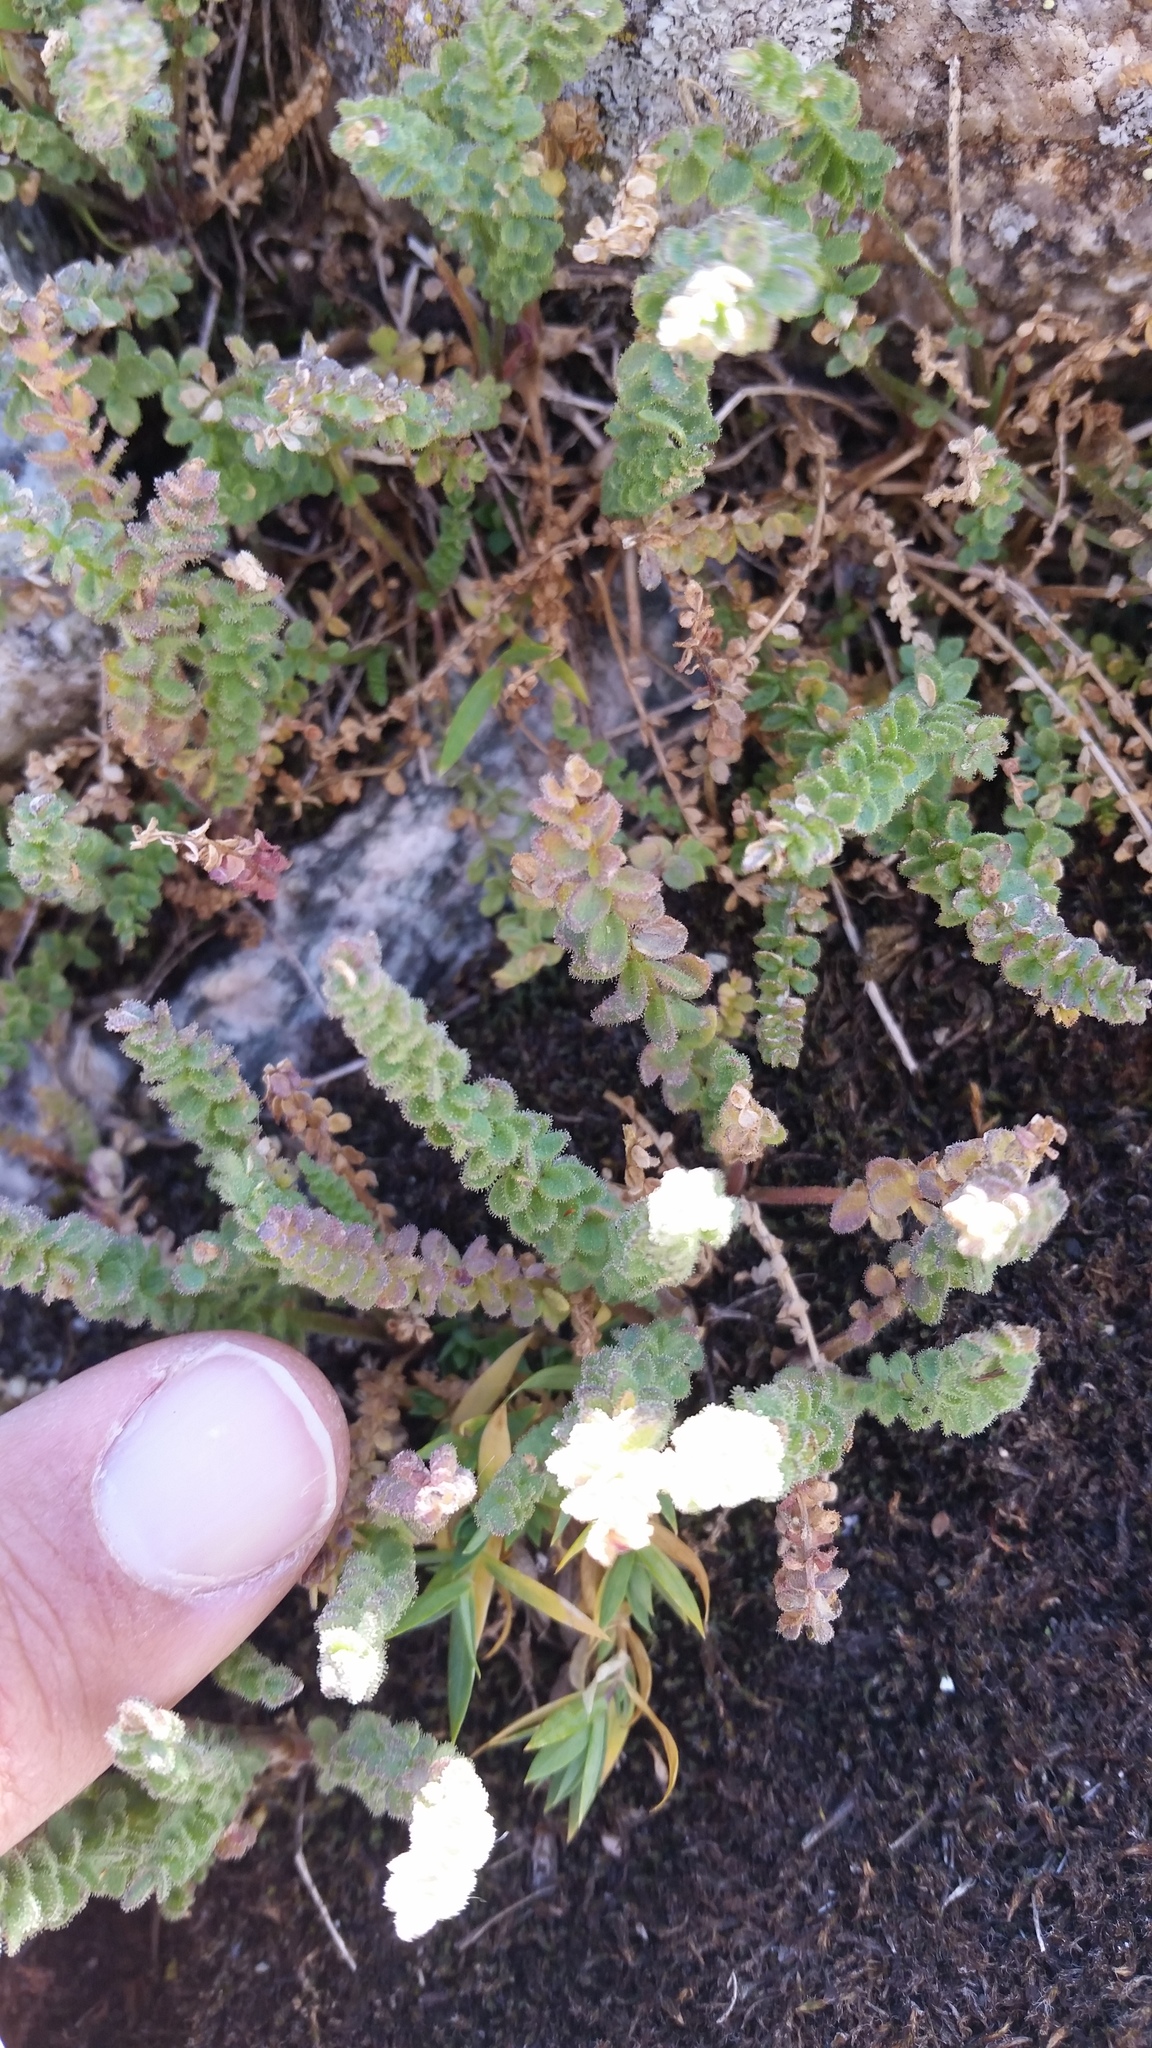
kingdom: Plantae
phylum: Tracheophyta
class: Magnoliopsida
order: Ericales
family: Polemoniaceae
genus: Polemonium
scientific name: Polemonium viscosum
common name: Skunk jacob's-ladder
